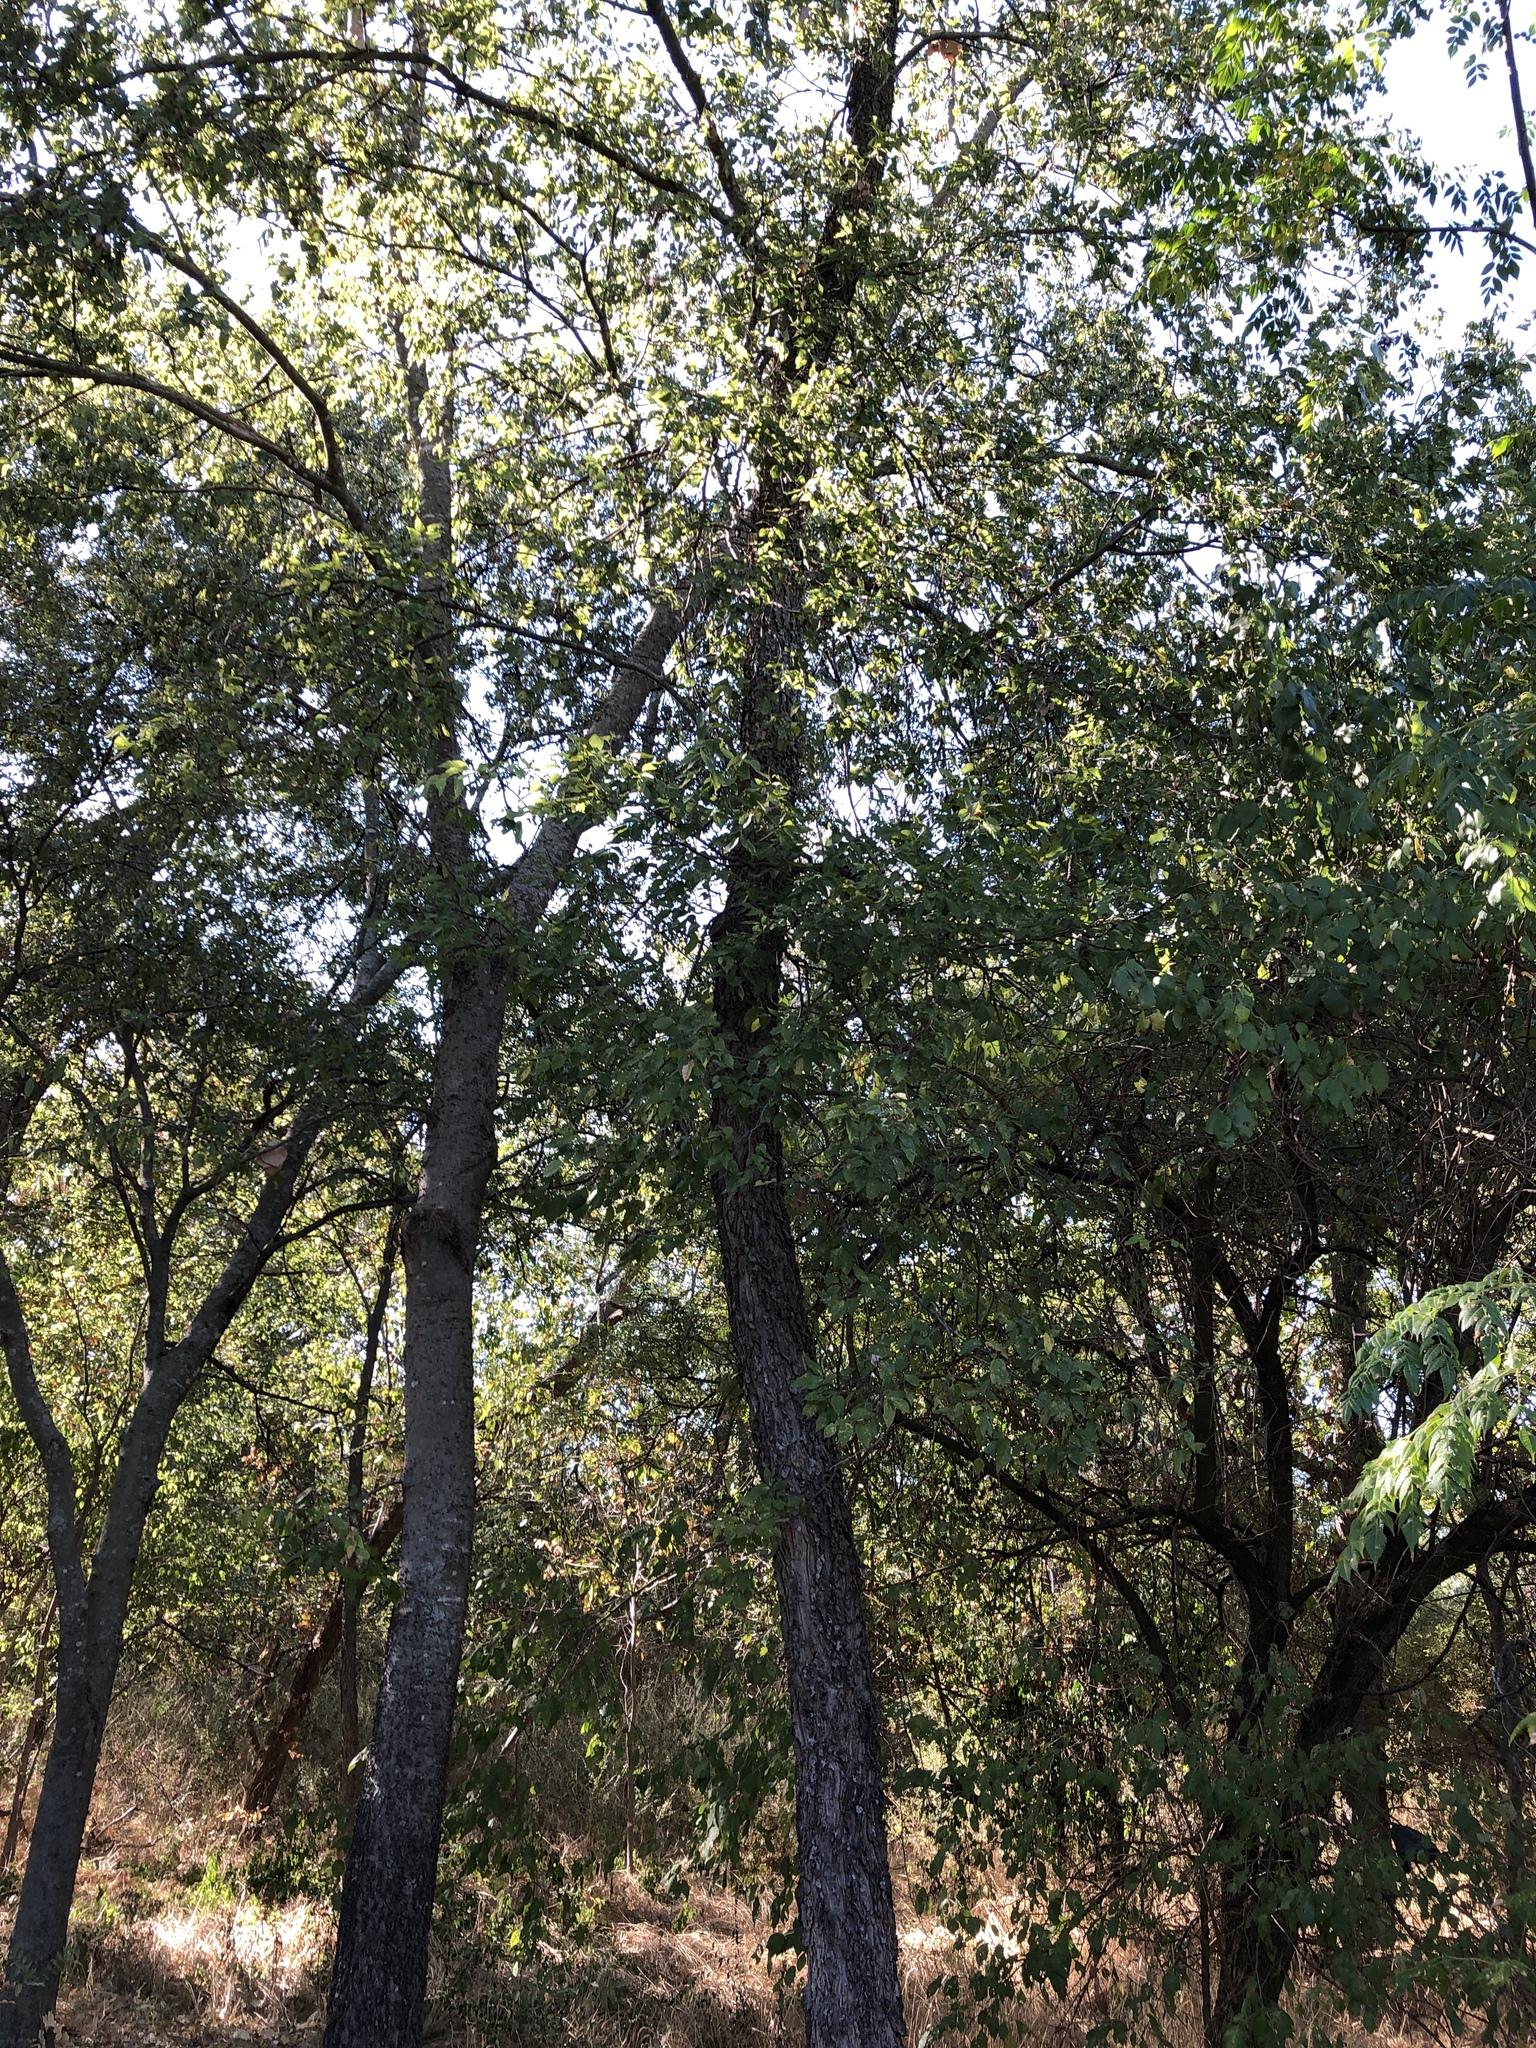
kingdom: Plantae
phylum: Tracheophyta
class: Magnoliopsida
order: Rosales
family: Cannabaceae
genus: Celtis
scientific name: Celtis laevigata
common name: Sugarberry
